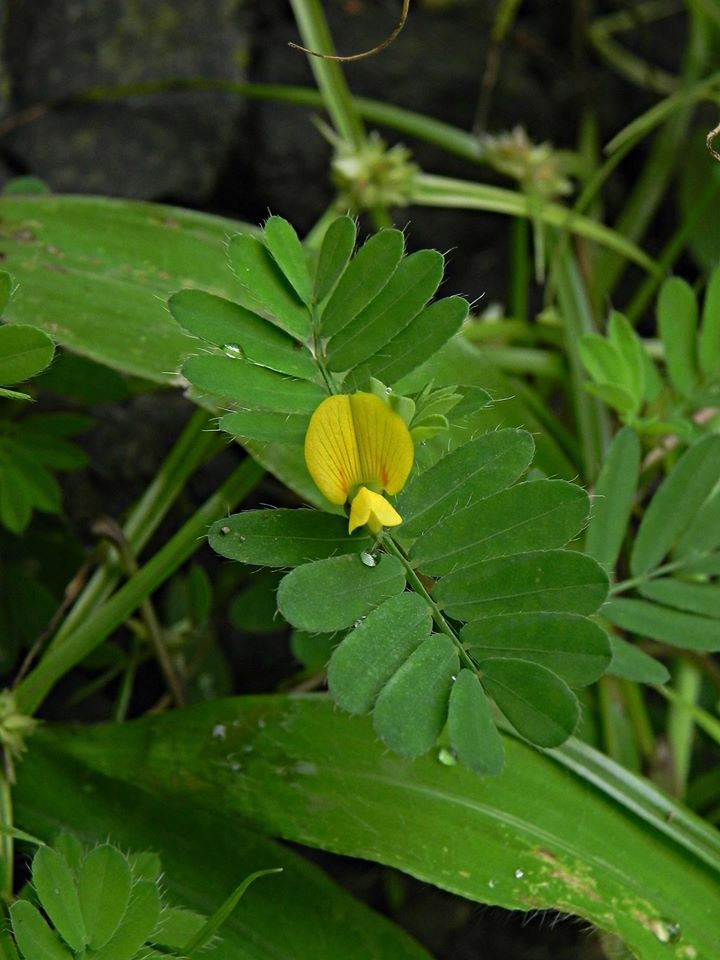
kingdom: Plantae
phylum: Tracheophyta
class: Magnoliopsida
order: Fabales
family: Fabaceae
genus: Smithia
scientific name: Smithia conferta
